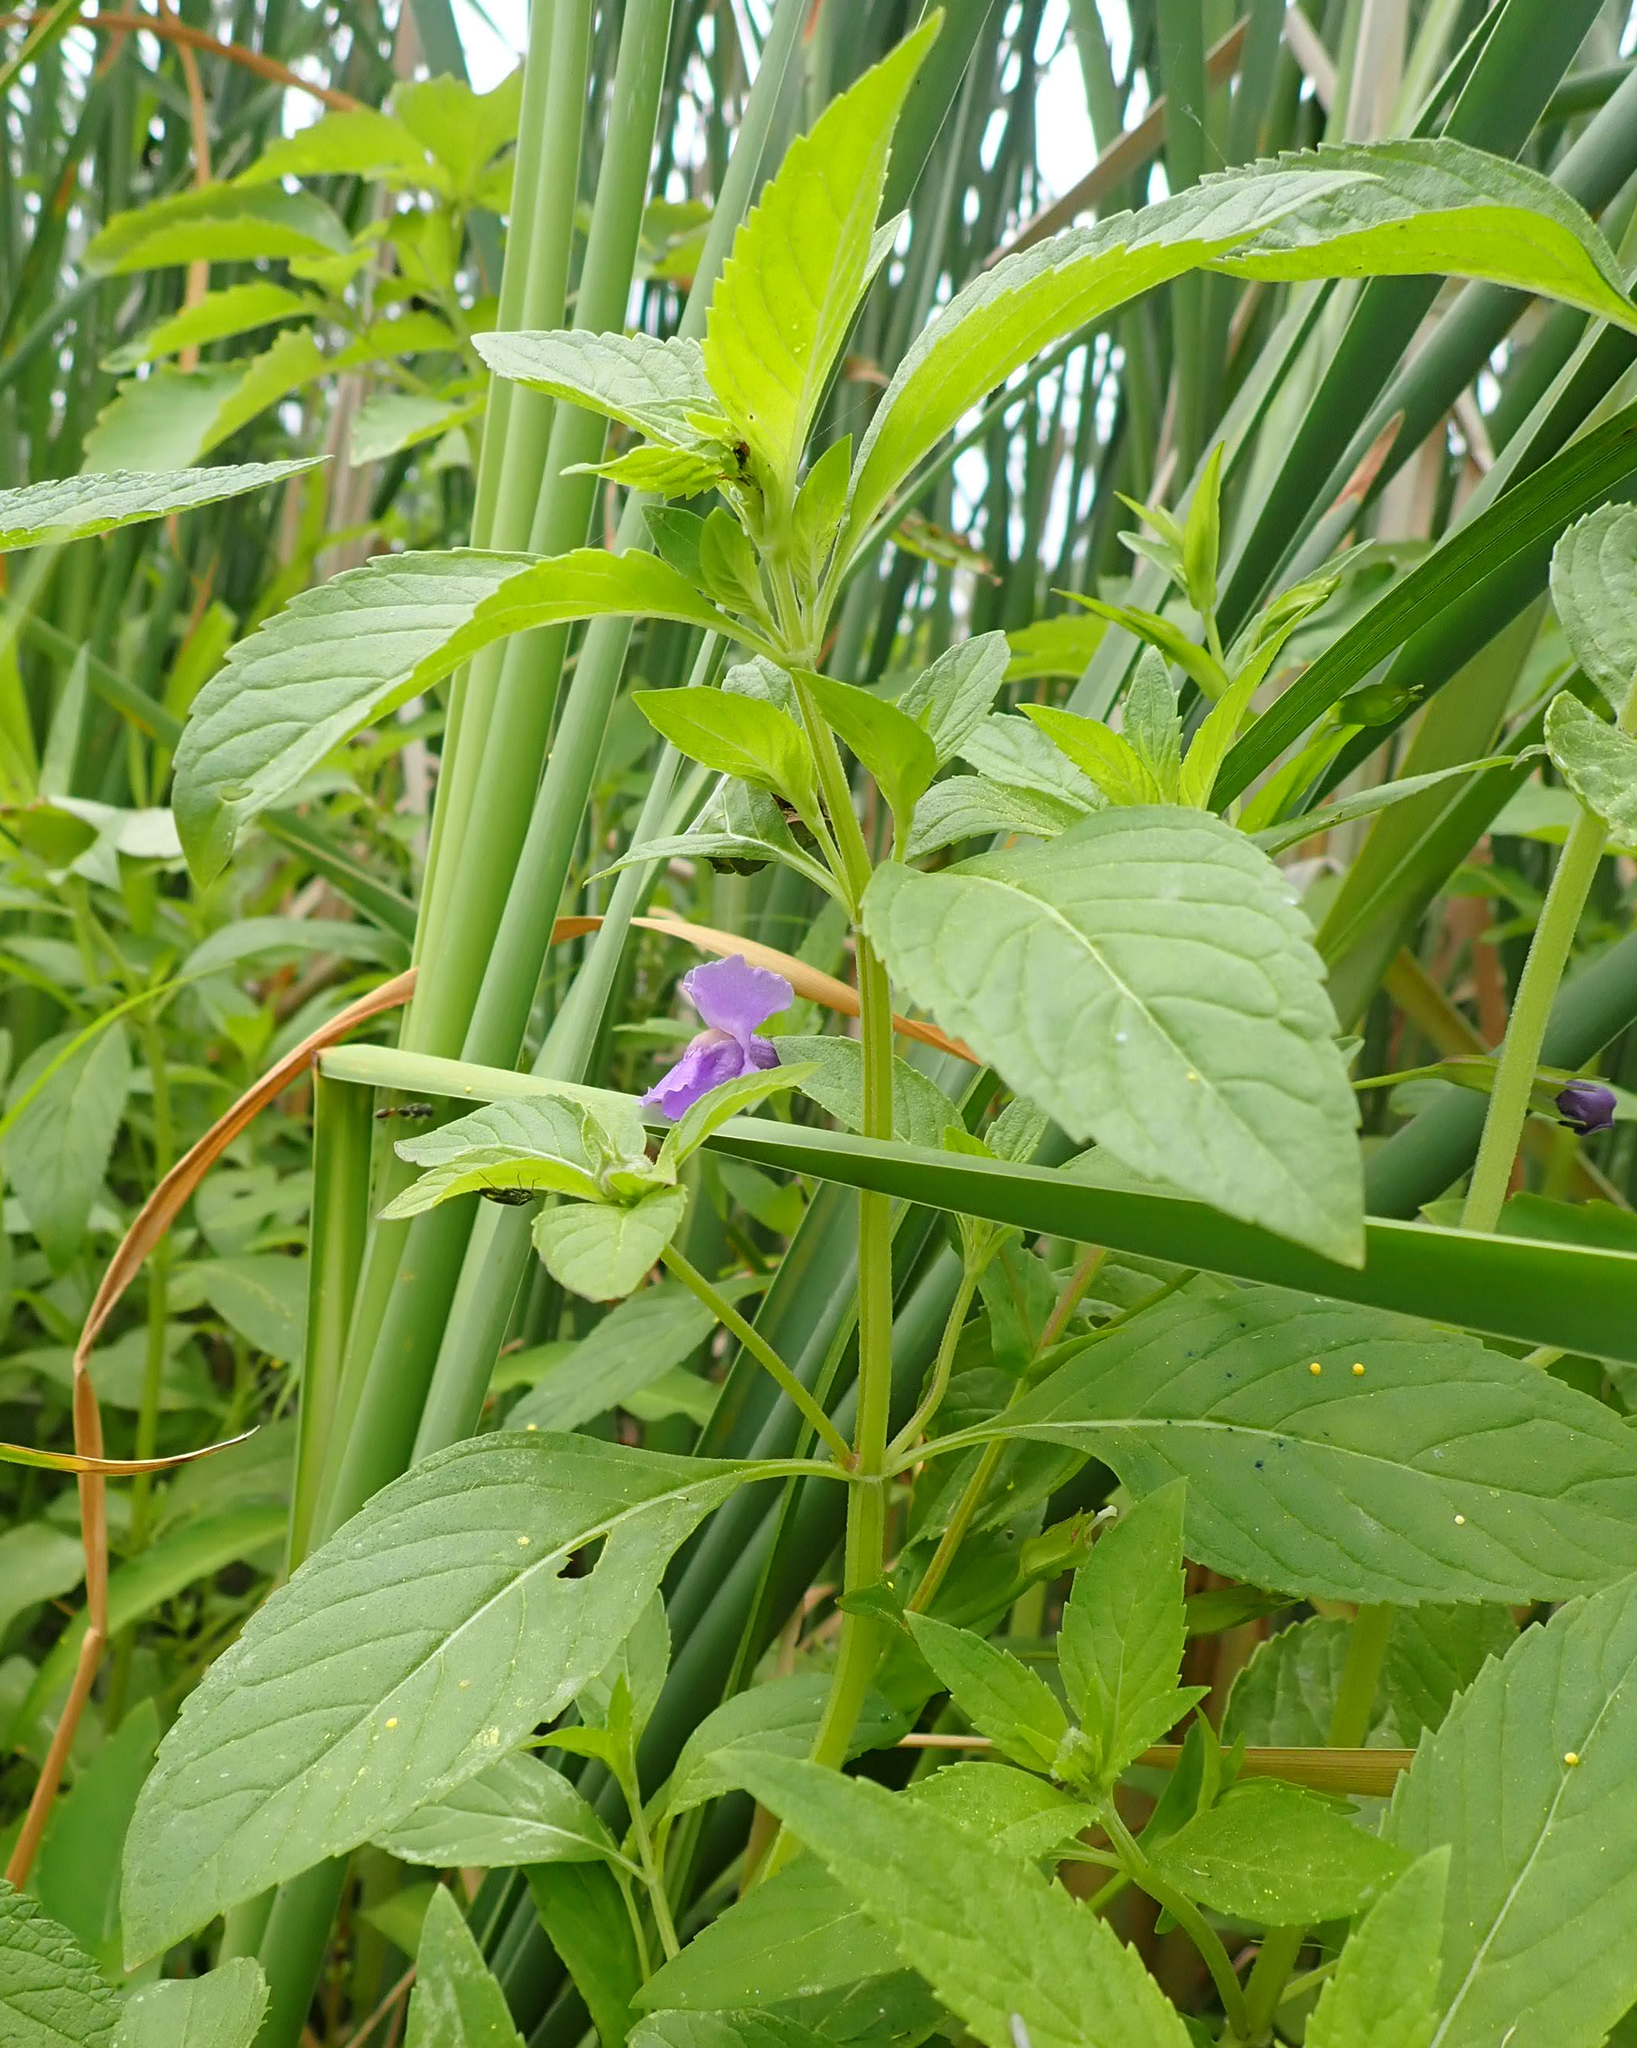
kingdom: Plantae
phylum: Tracheophyta
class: Magnoliopsida
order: Lamiales
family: Phrymaceae
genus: Mimulus
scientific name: Mimulus ringens
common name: Allegheny monkeyflower
